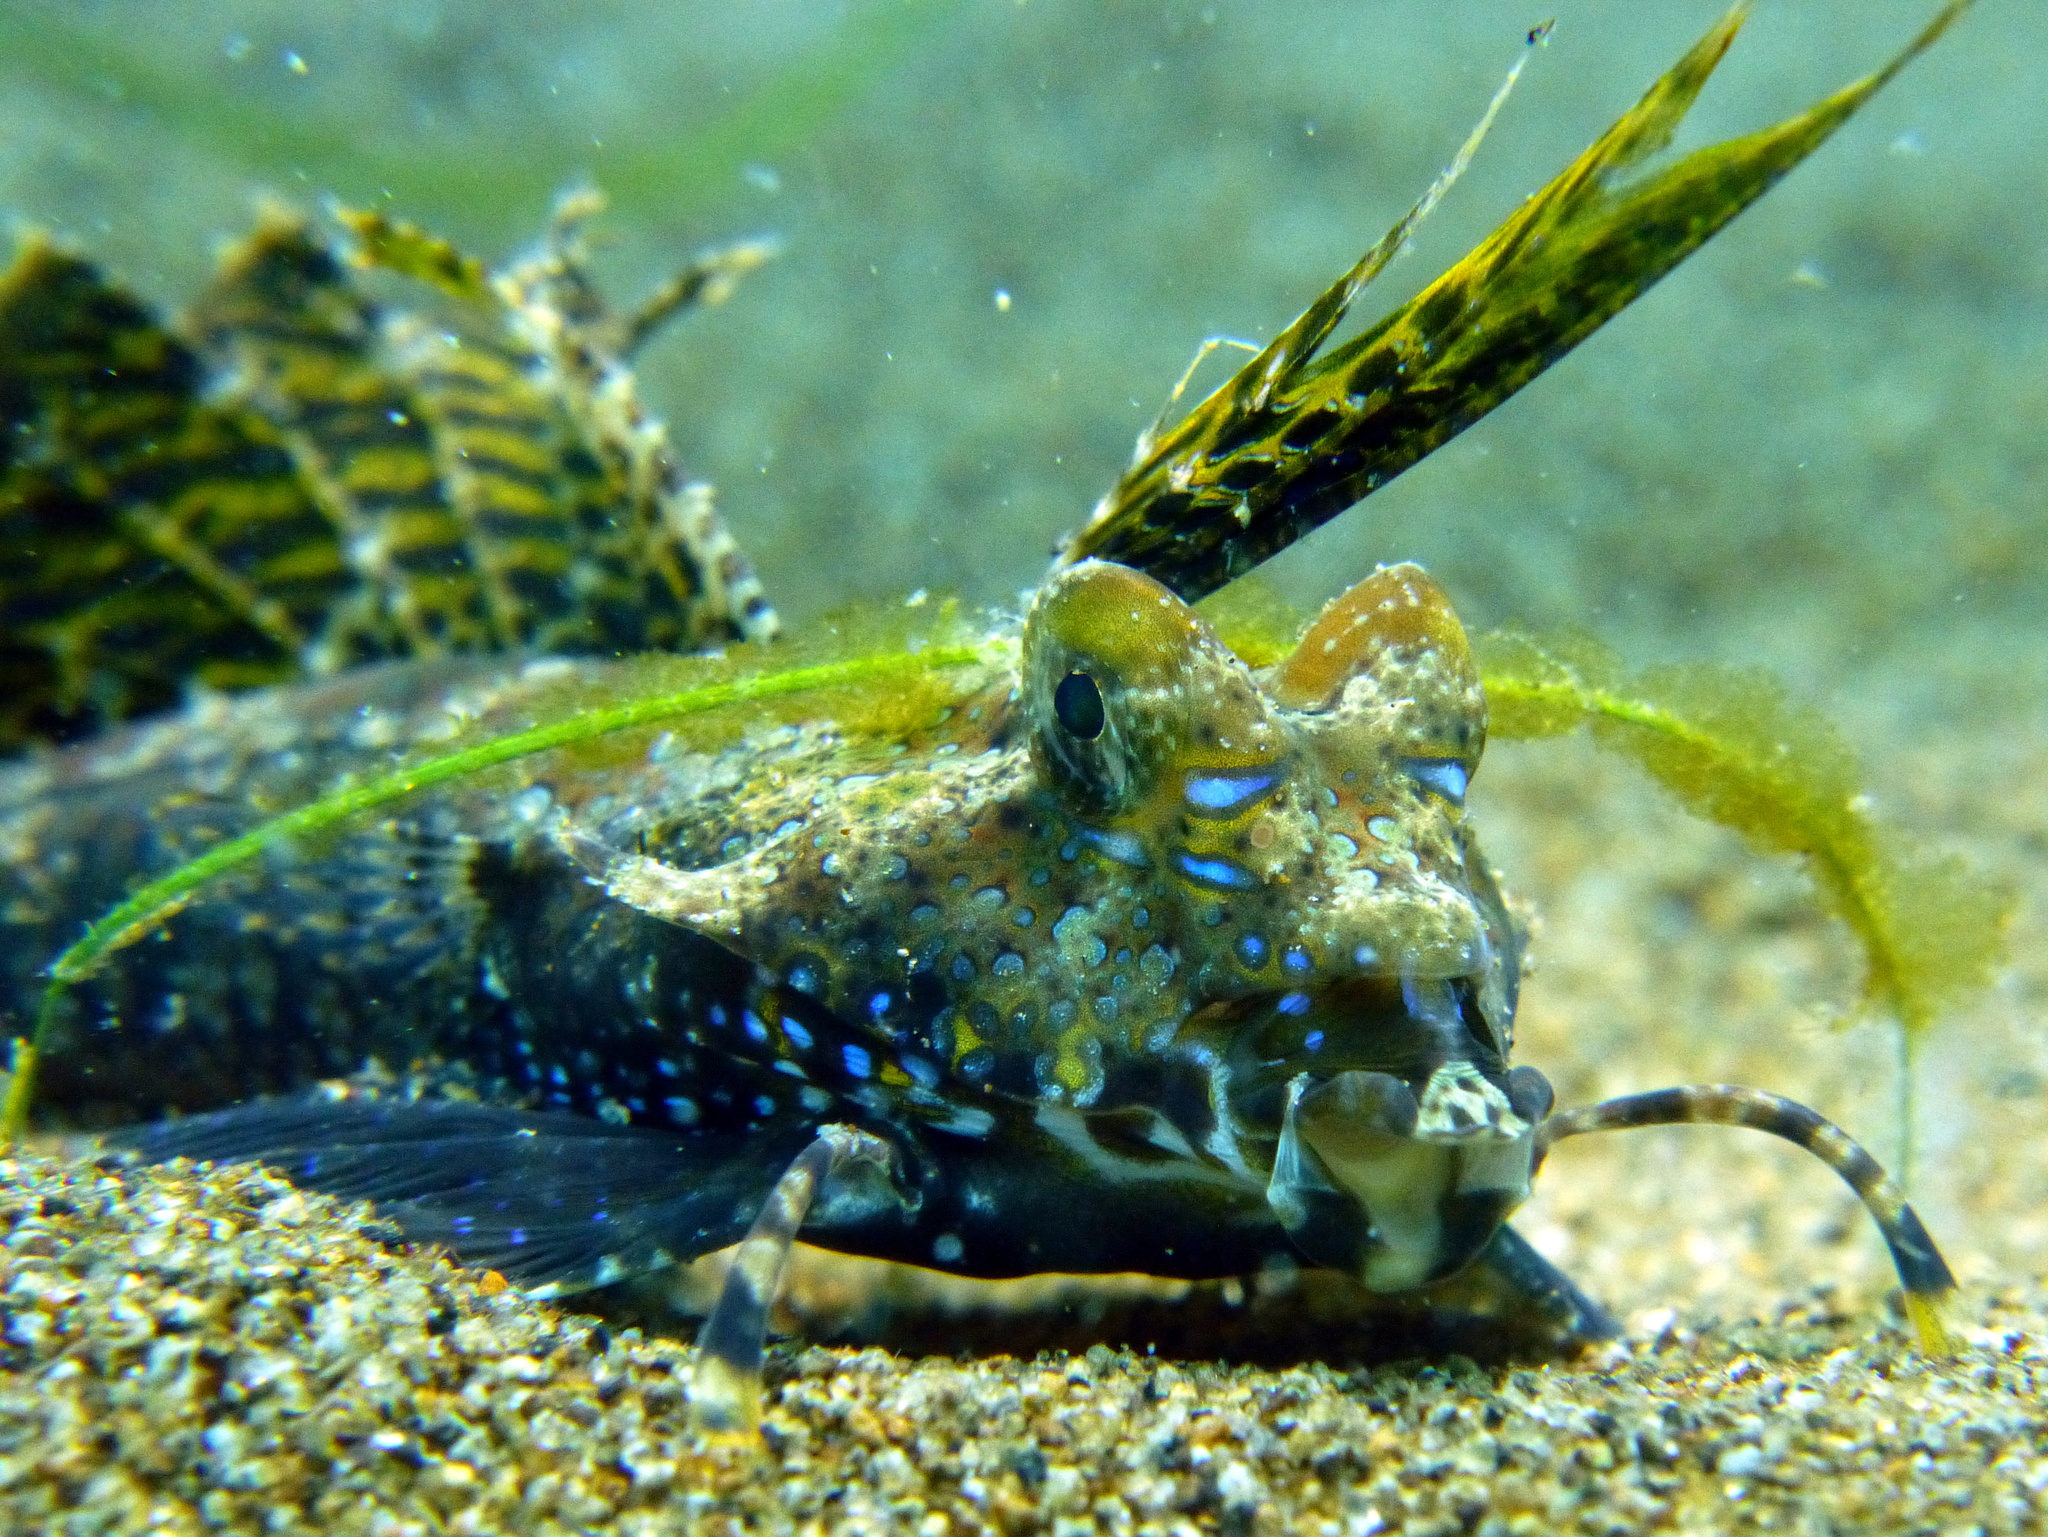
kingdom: Animalia
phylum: Chordata
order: Perciformes
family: Callionymidae
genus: Dactylopus
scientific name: Dactylopus dactylopus
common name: Fingered dragonet
